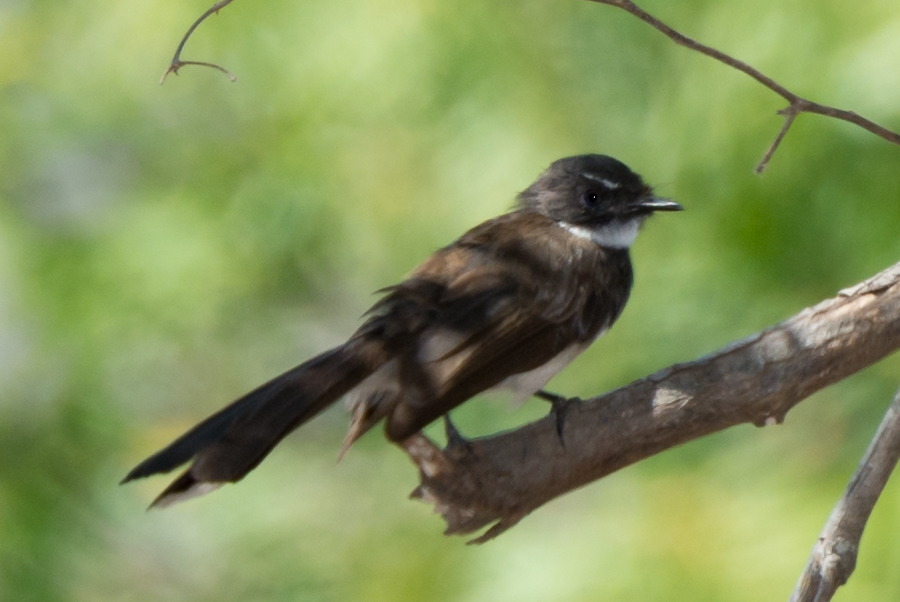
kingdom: Animalia
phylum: Chordata
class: Aves
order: Passeriformes
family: Rhipiduridae
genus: Rhipidura
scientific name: Rhipidura javanica
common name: Pied fantail
